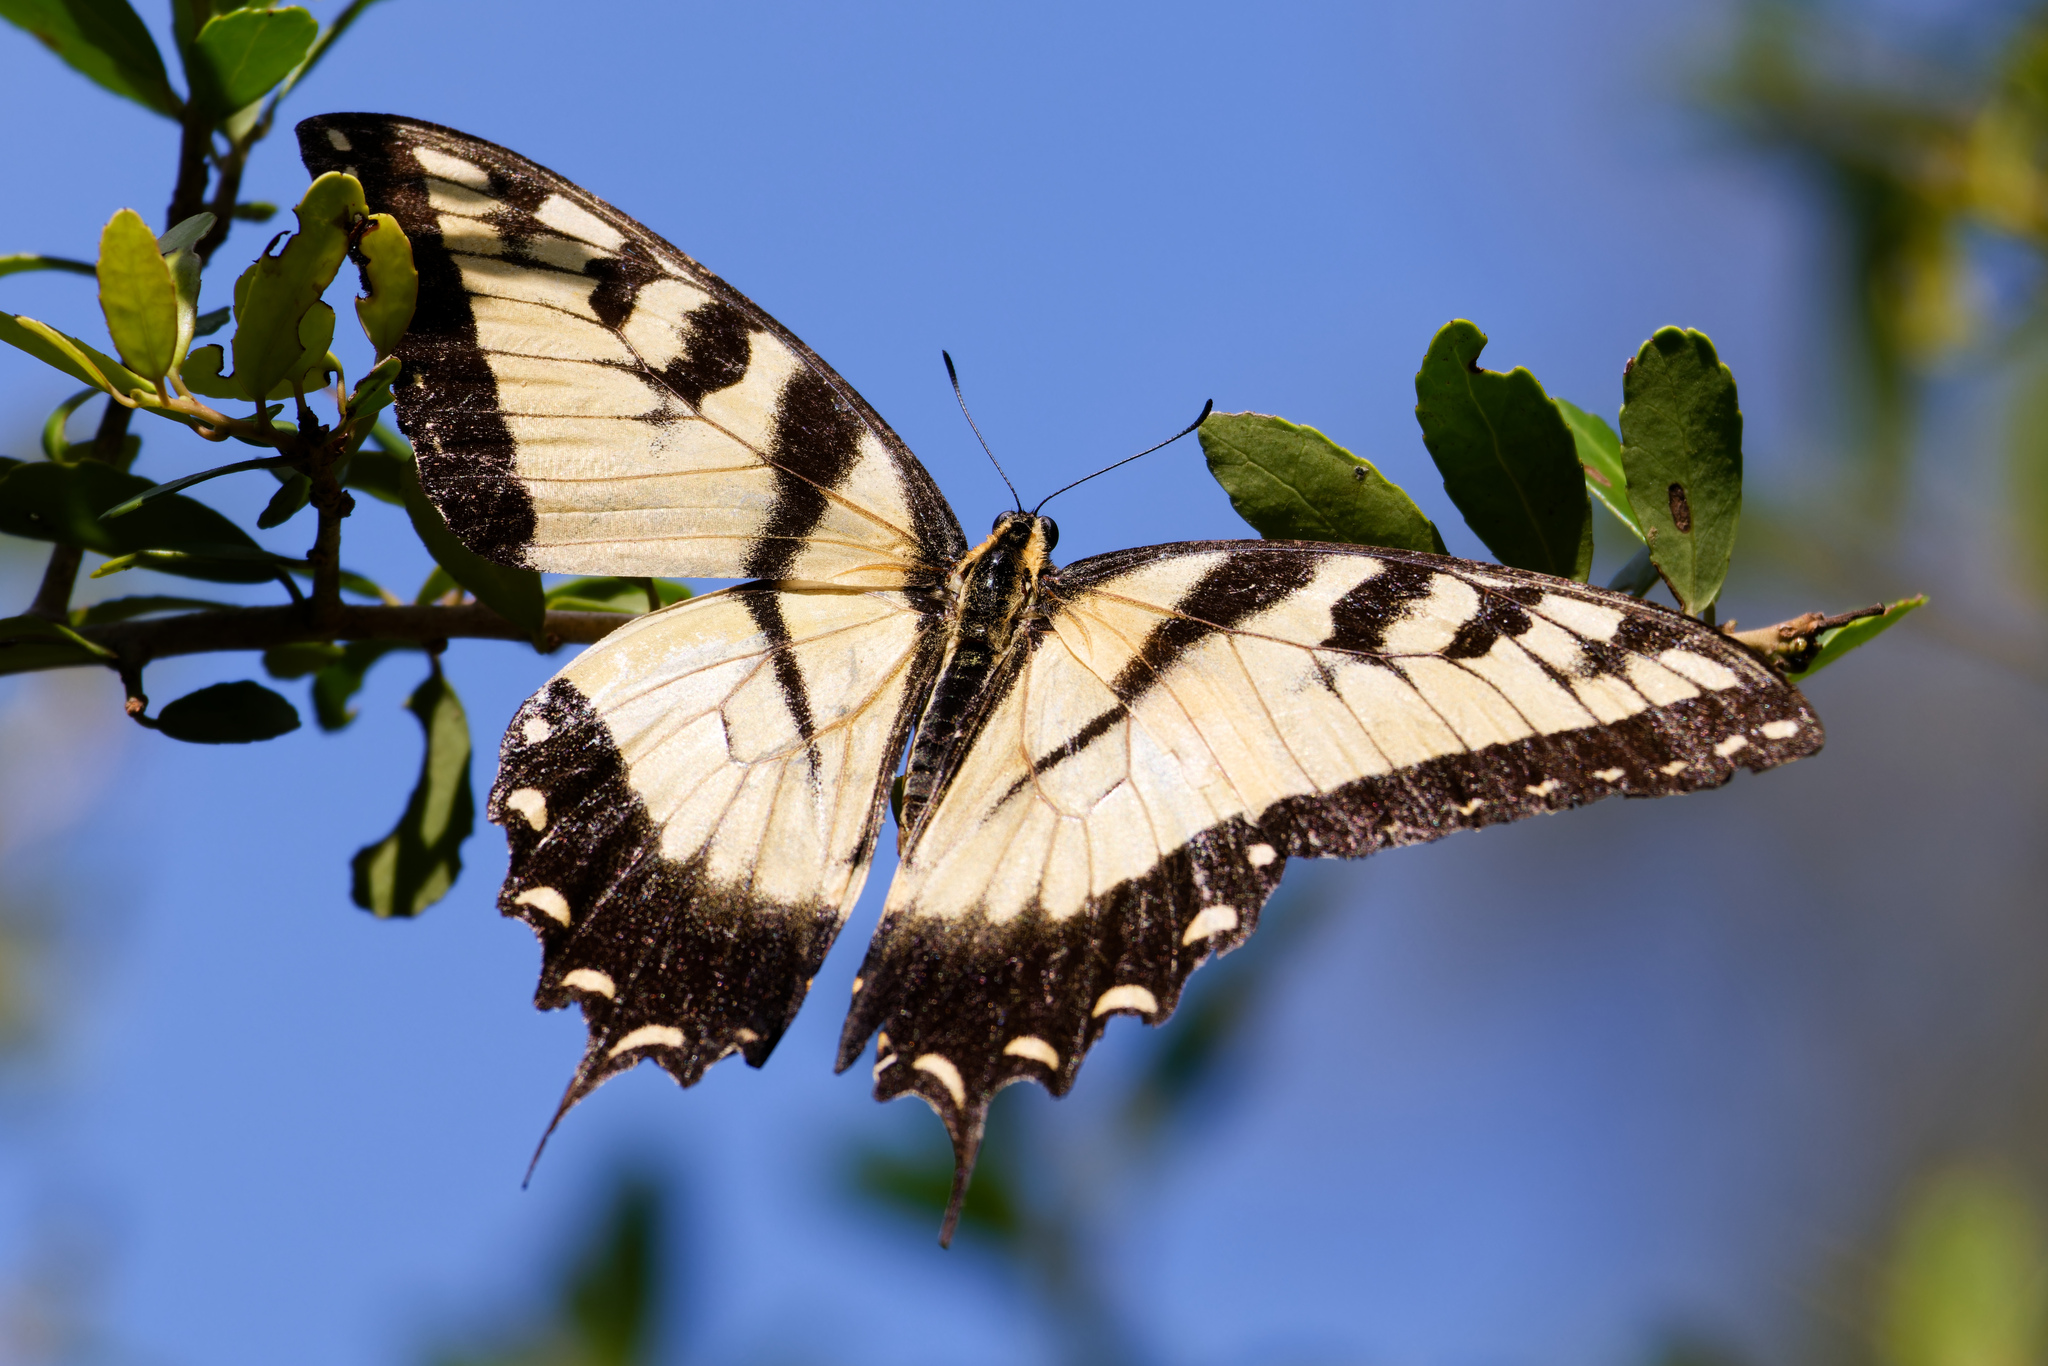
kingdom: Animalia
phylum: Arthropoda
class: Insecta
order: Lepidoptera
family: Papilionidae
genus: Papilio
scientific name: Papilio glaucus
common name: Tiger swallowtail
